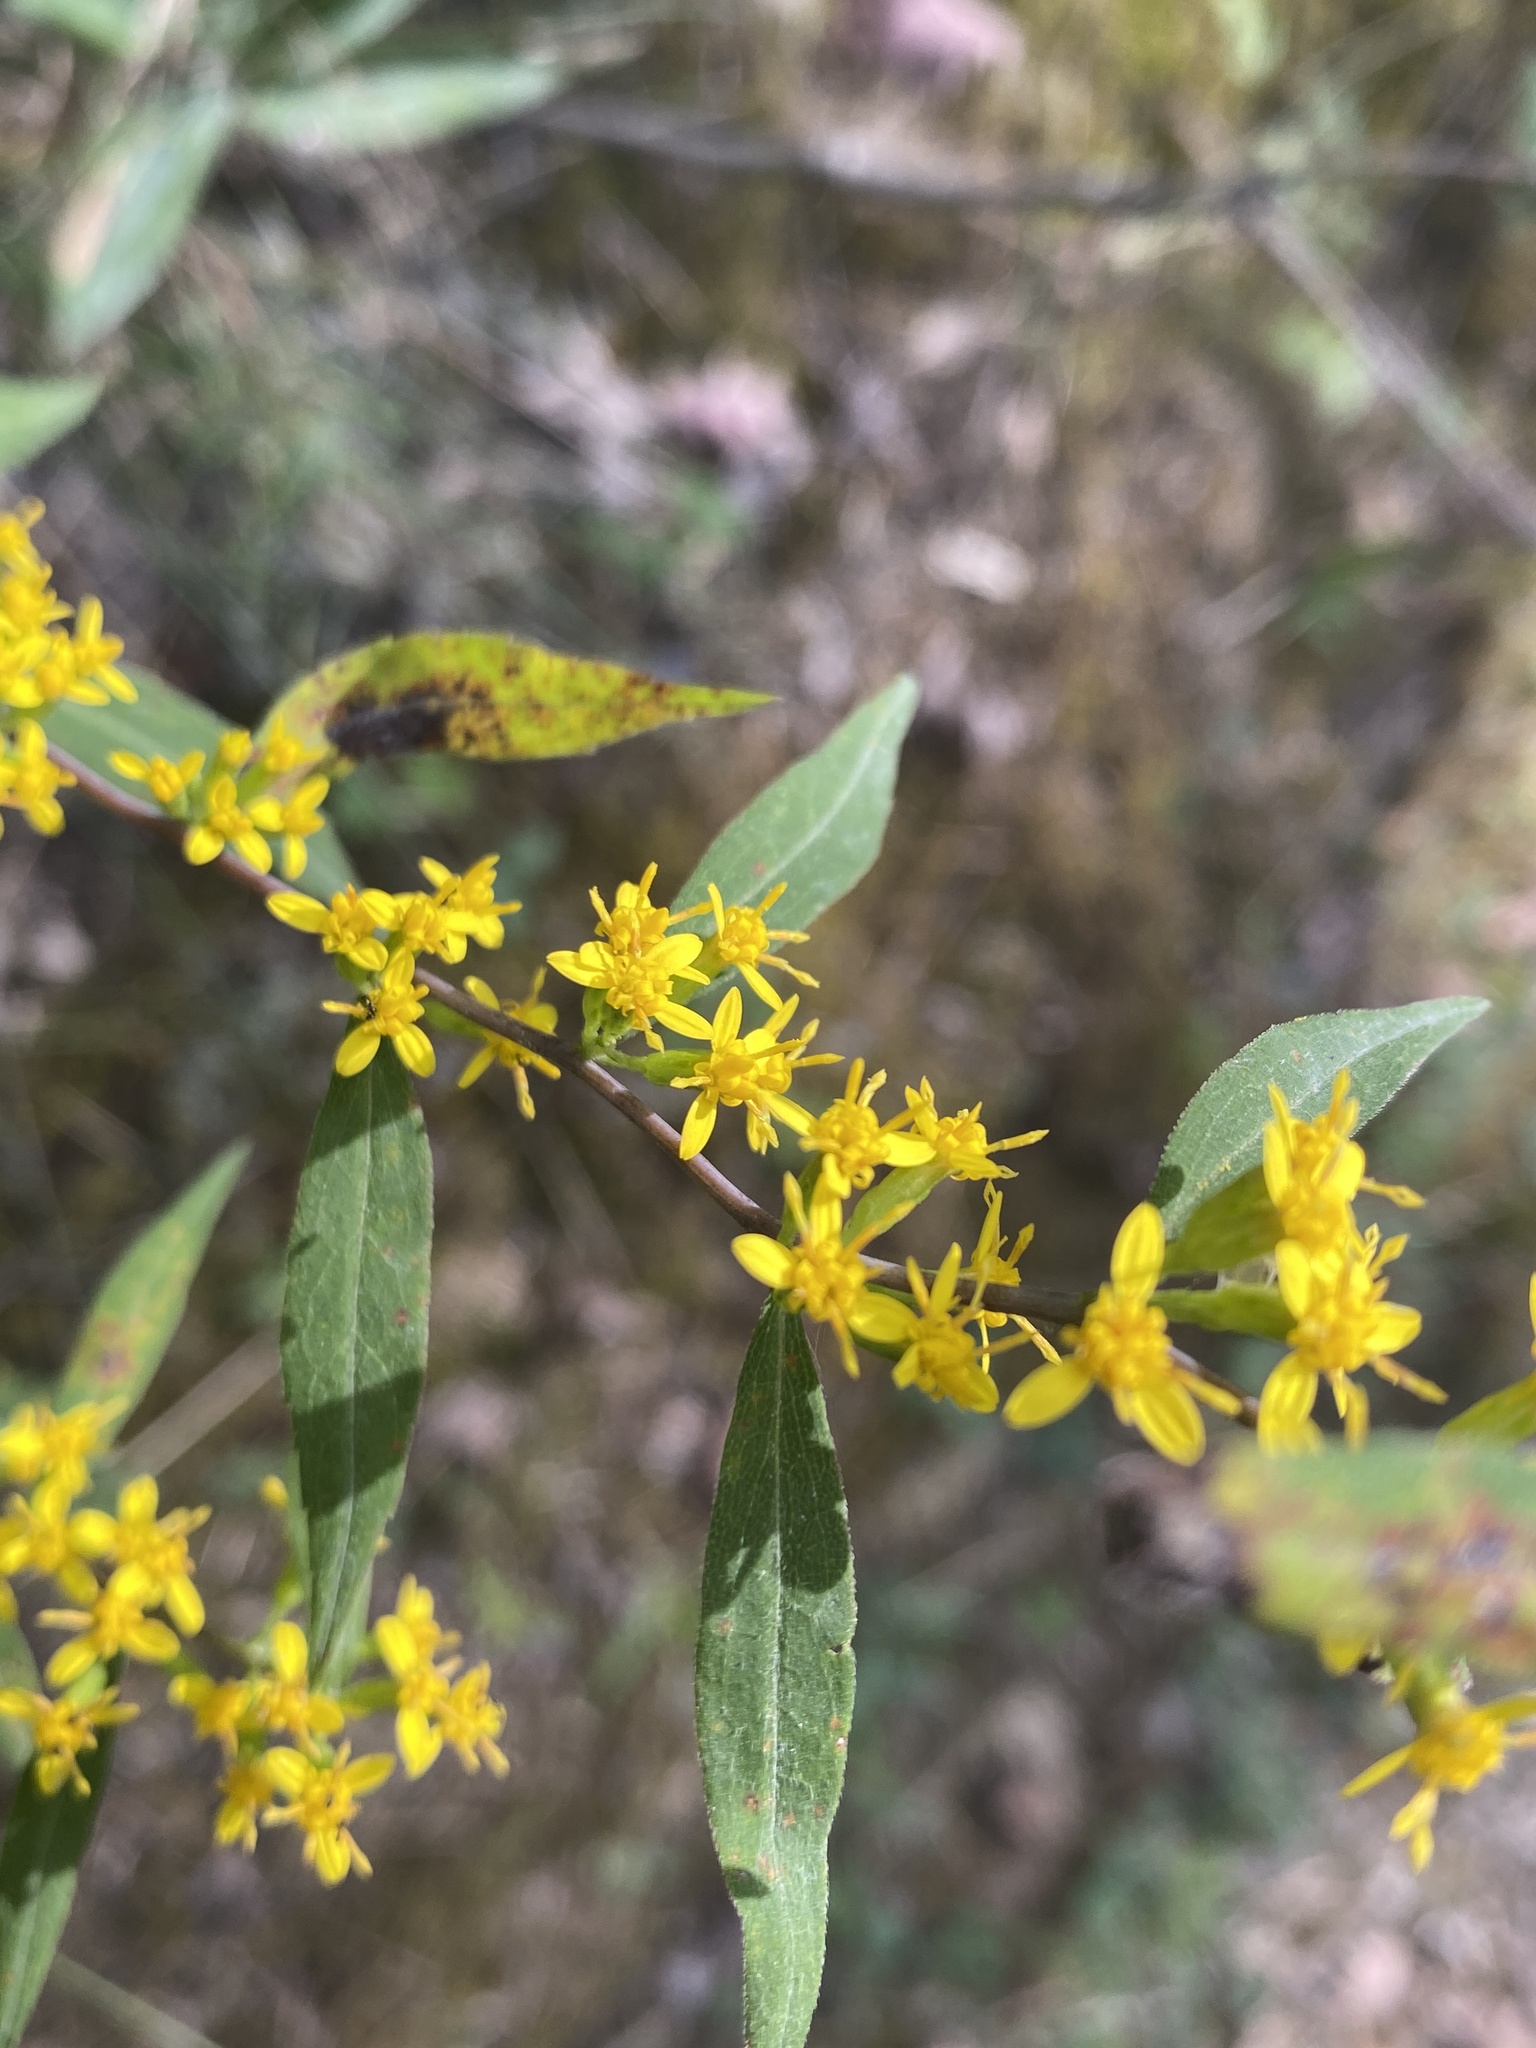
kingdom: Plantae
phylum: Tracheophyta
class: Magnoliopsida
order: Asterales
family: Asteraceae
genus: Solidago
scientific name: Solidago caesia
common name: Woodland goldenrod
